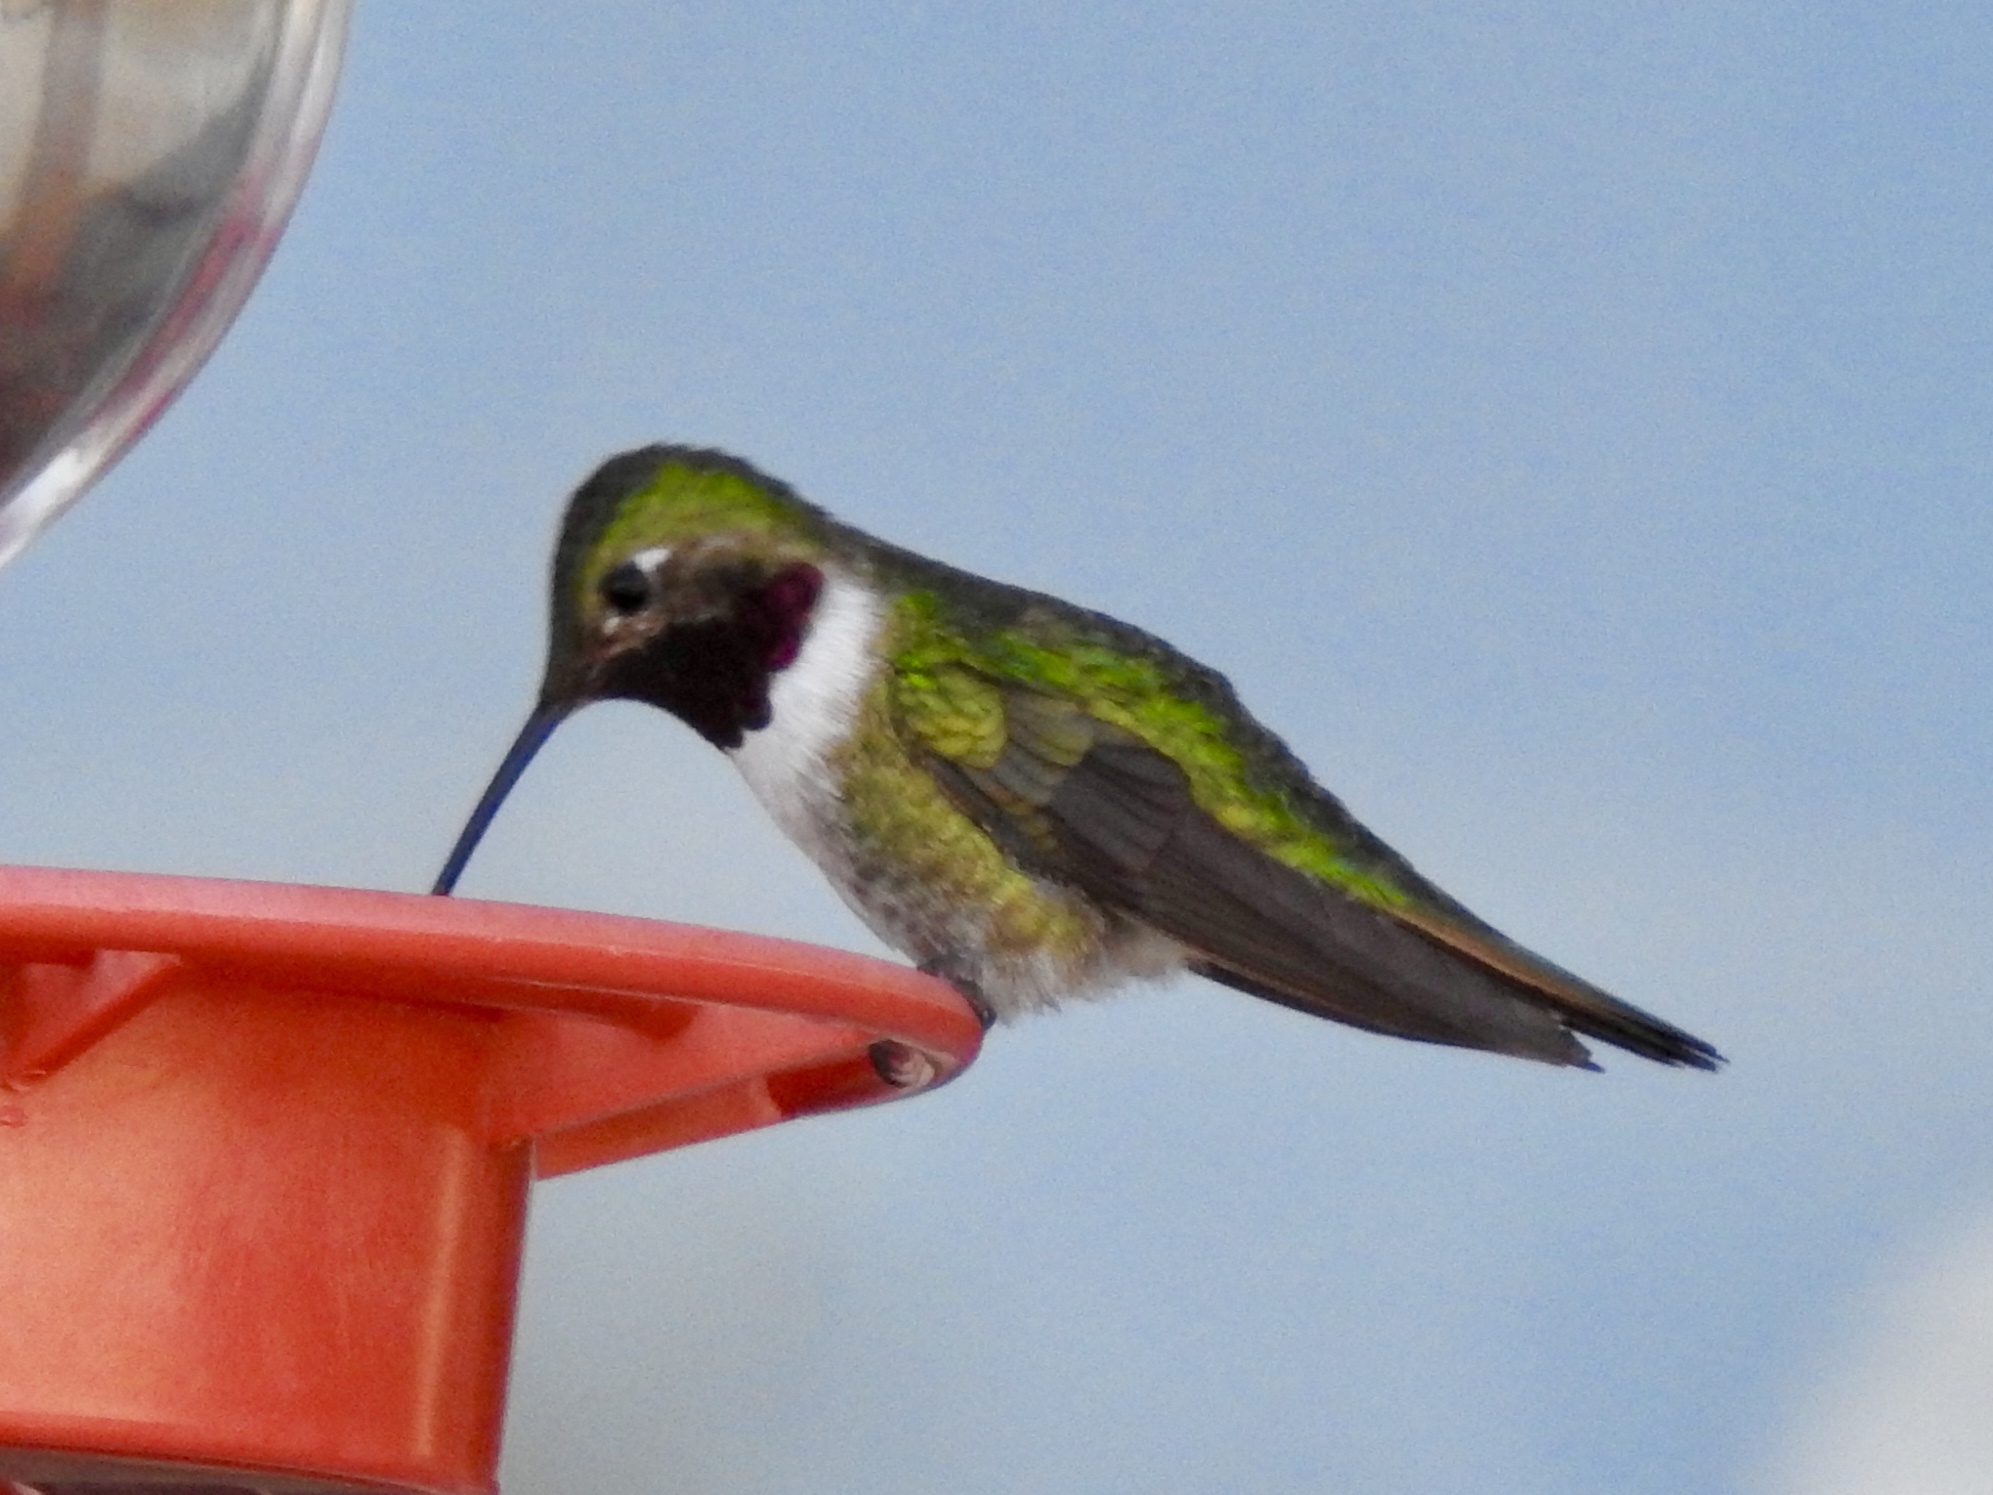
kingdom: Animalia
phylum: Chordata
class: Aves
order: Apodiformes
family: Trochilidae
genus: Selasphorus
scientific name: Selasphorus platycercus
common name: Broad-tailed hummingbird
